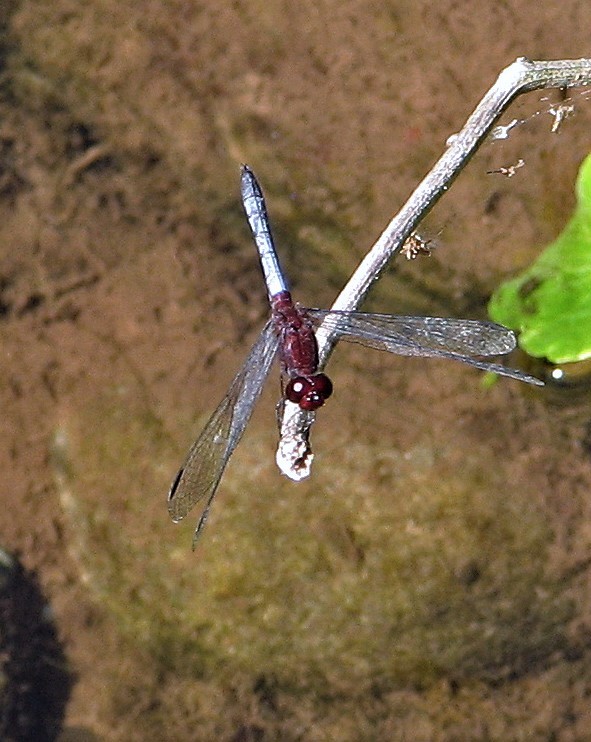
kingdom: Animalia
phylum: Arthropoda
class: Insecta
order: Odonata
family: Libellulidae
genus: Erythrodiplax
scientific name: Erythrodiplax melanorubra
